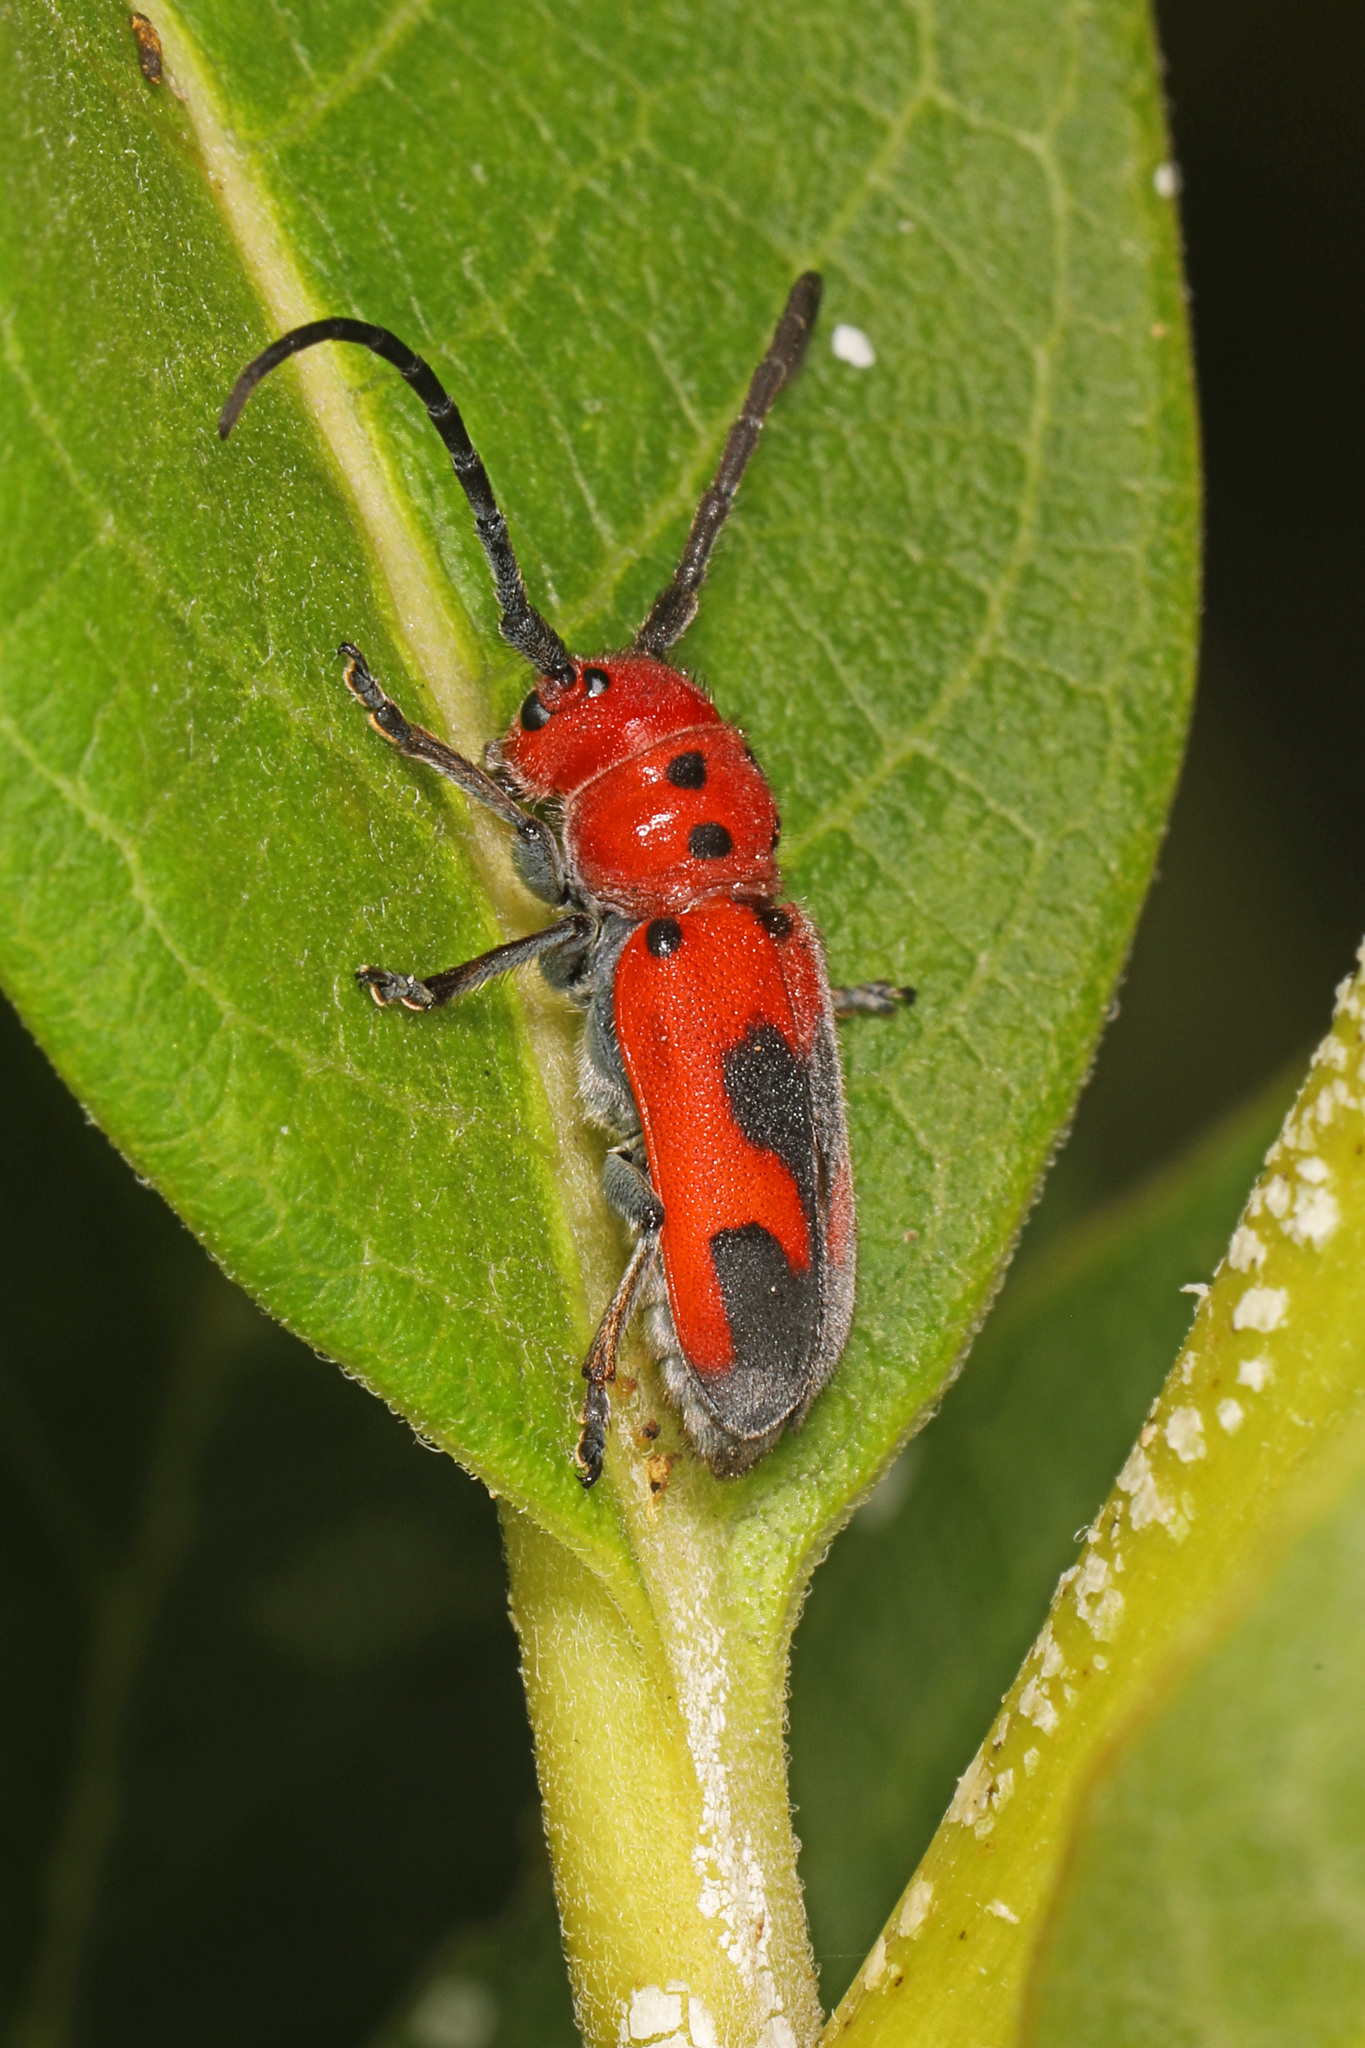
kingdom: Animalia
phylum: Arthropoda
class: Insecta
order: Coleoptera
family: Cerambycidae
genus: Tetraopes
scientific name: Tetraopes melanurus
